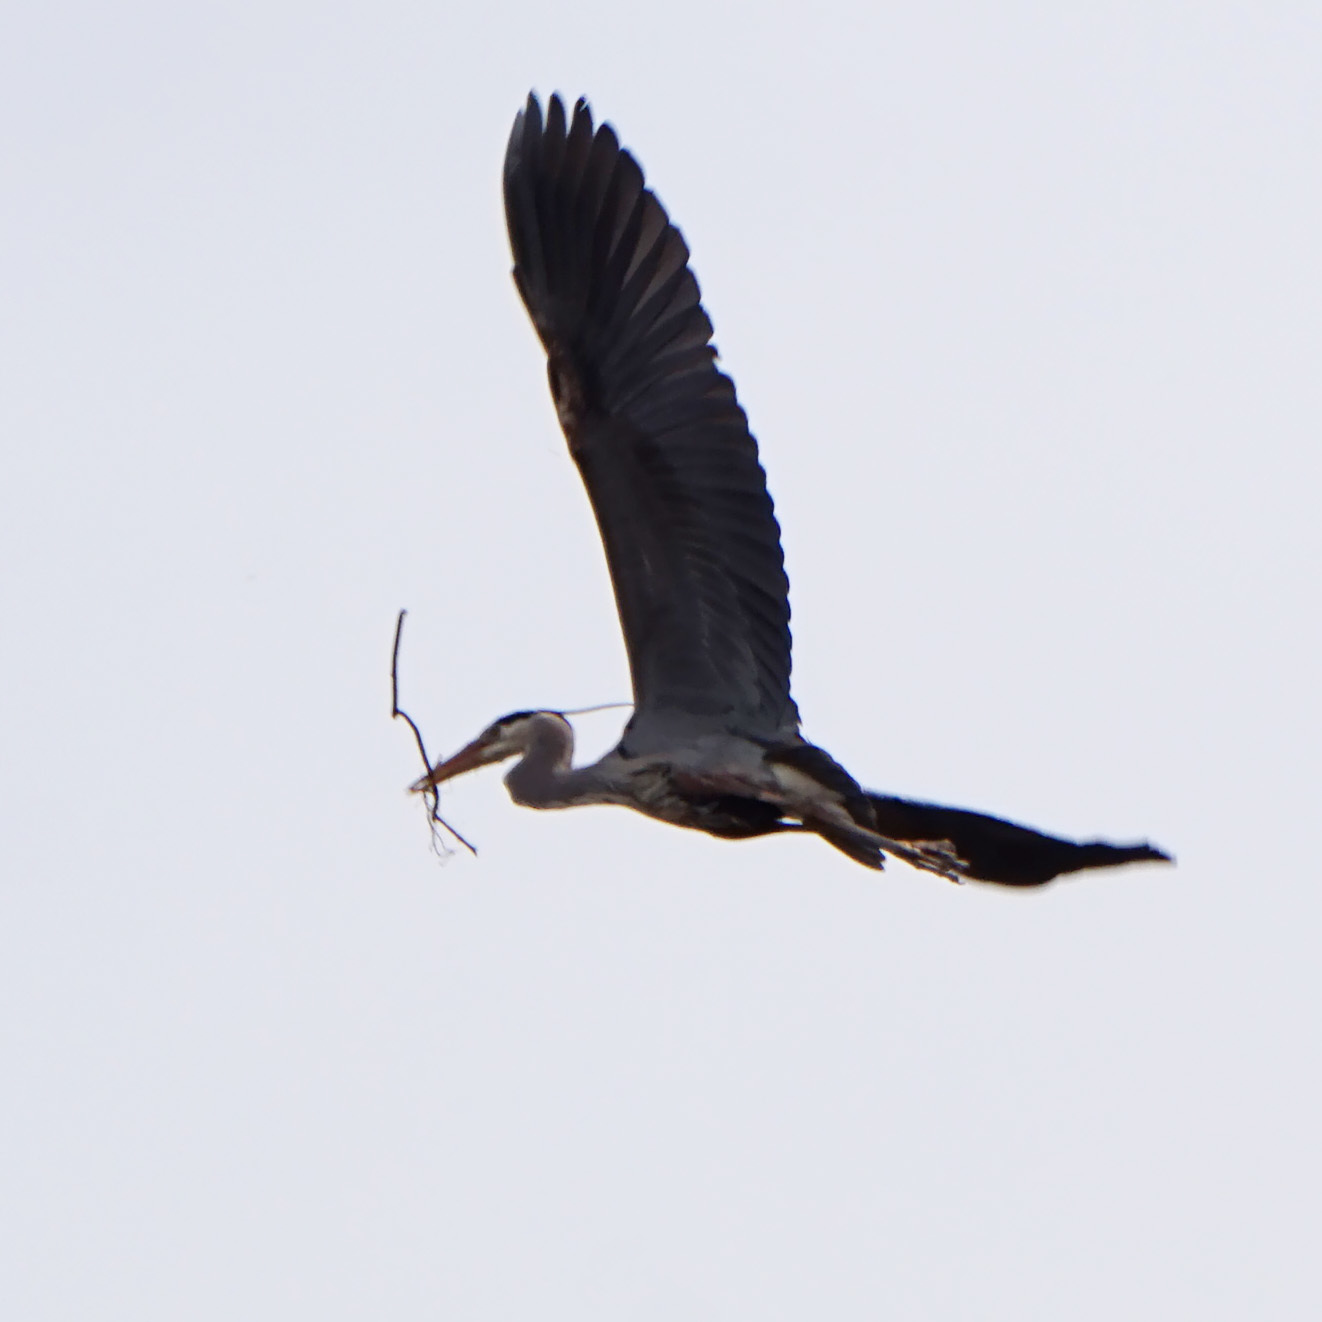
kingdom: Animalia
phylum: Chordata
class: Aves
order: Pelecaniformes
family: Ardeidae
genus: Ardea
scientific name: Ardea herodias
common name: Great blue heron
